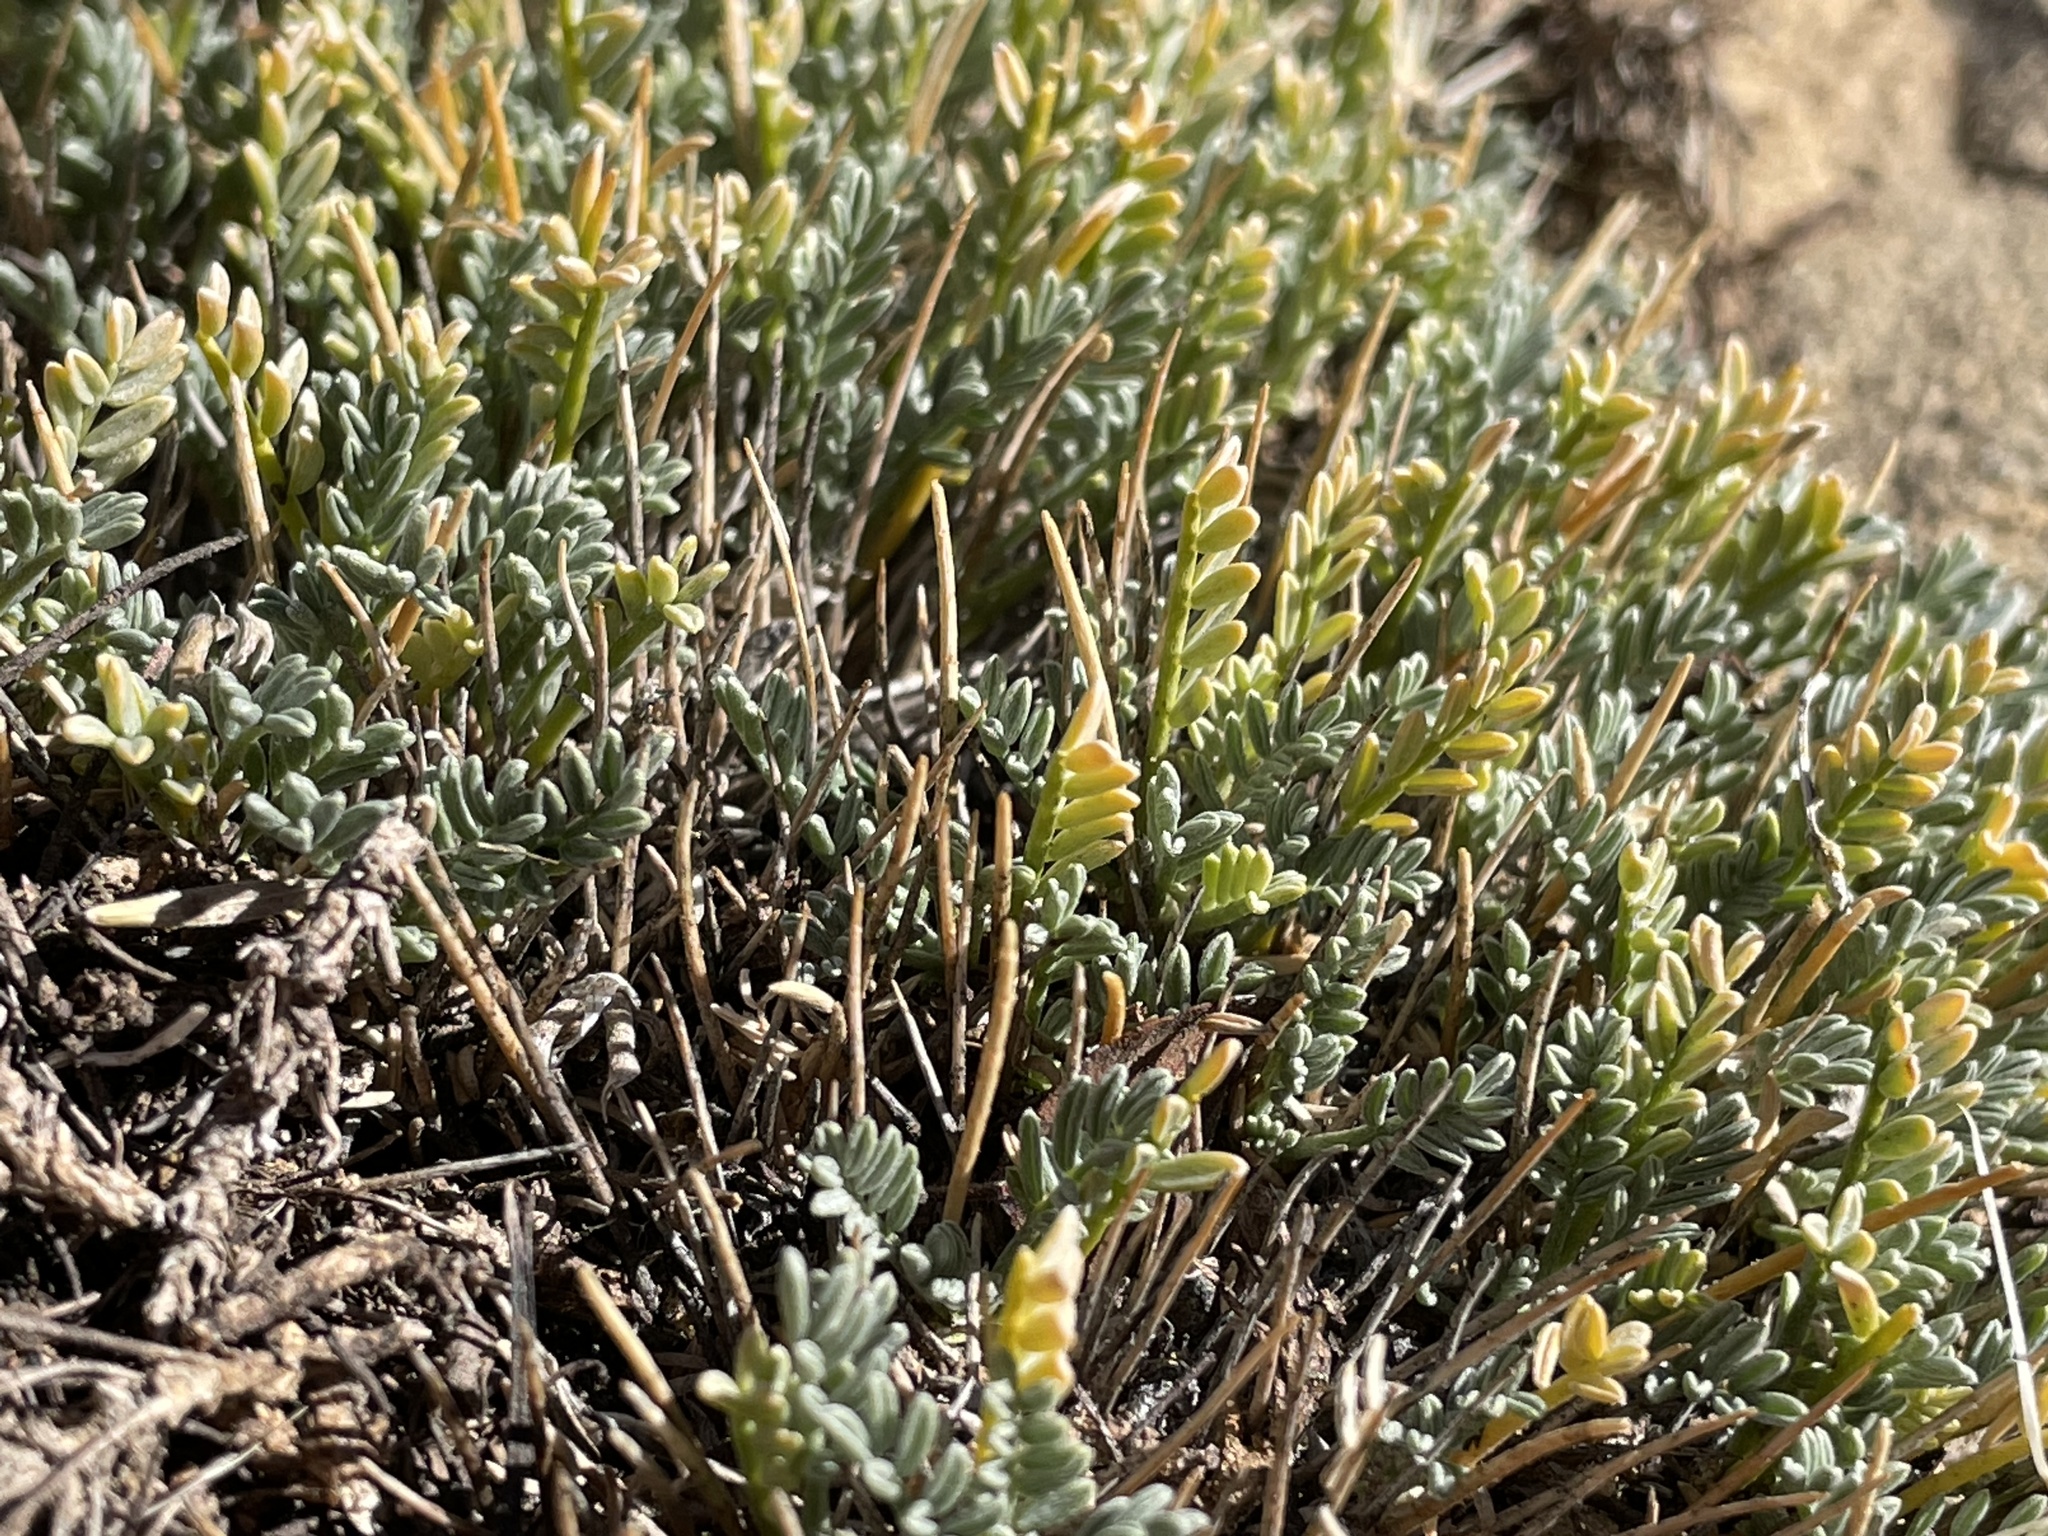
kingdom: Plantae
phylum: Tracheophyta
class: Magnoliopsida
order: Fabales
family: Fabaceae
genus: Astragalus
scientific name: Astragalus humillimus
